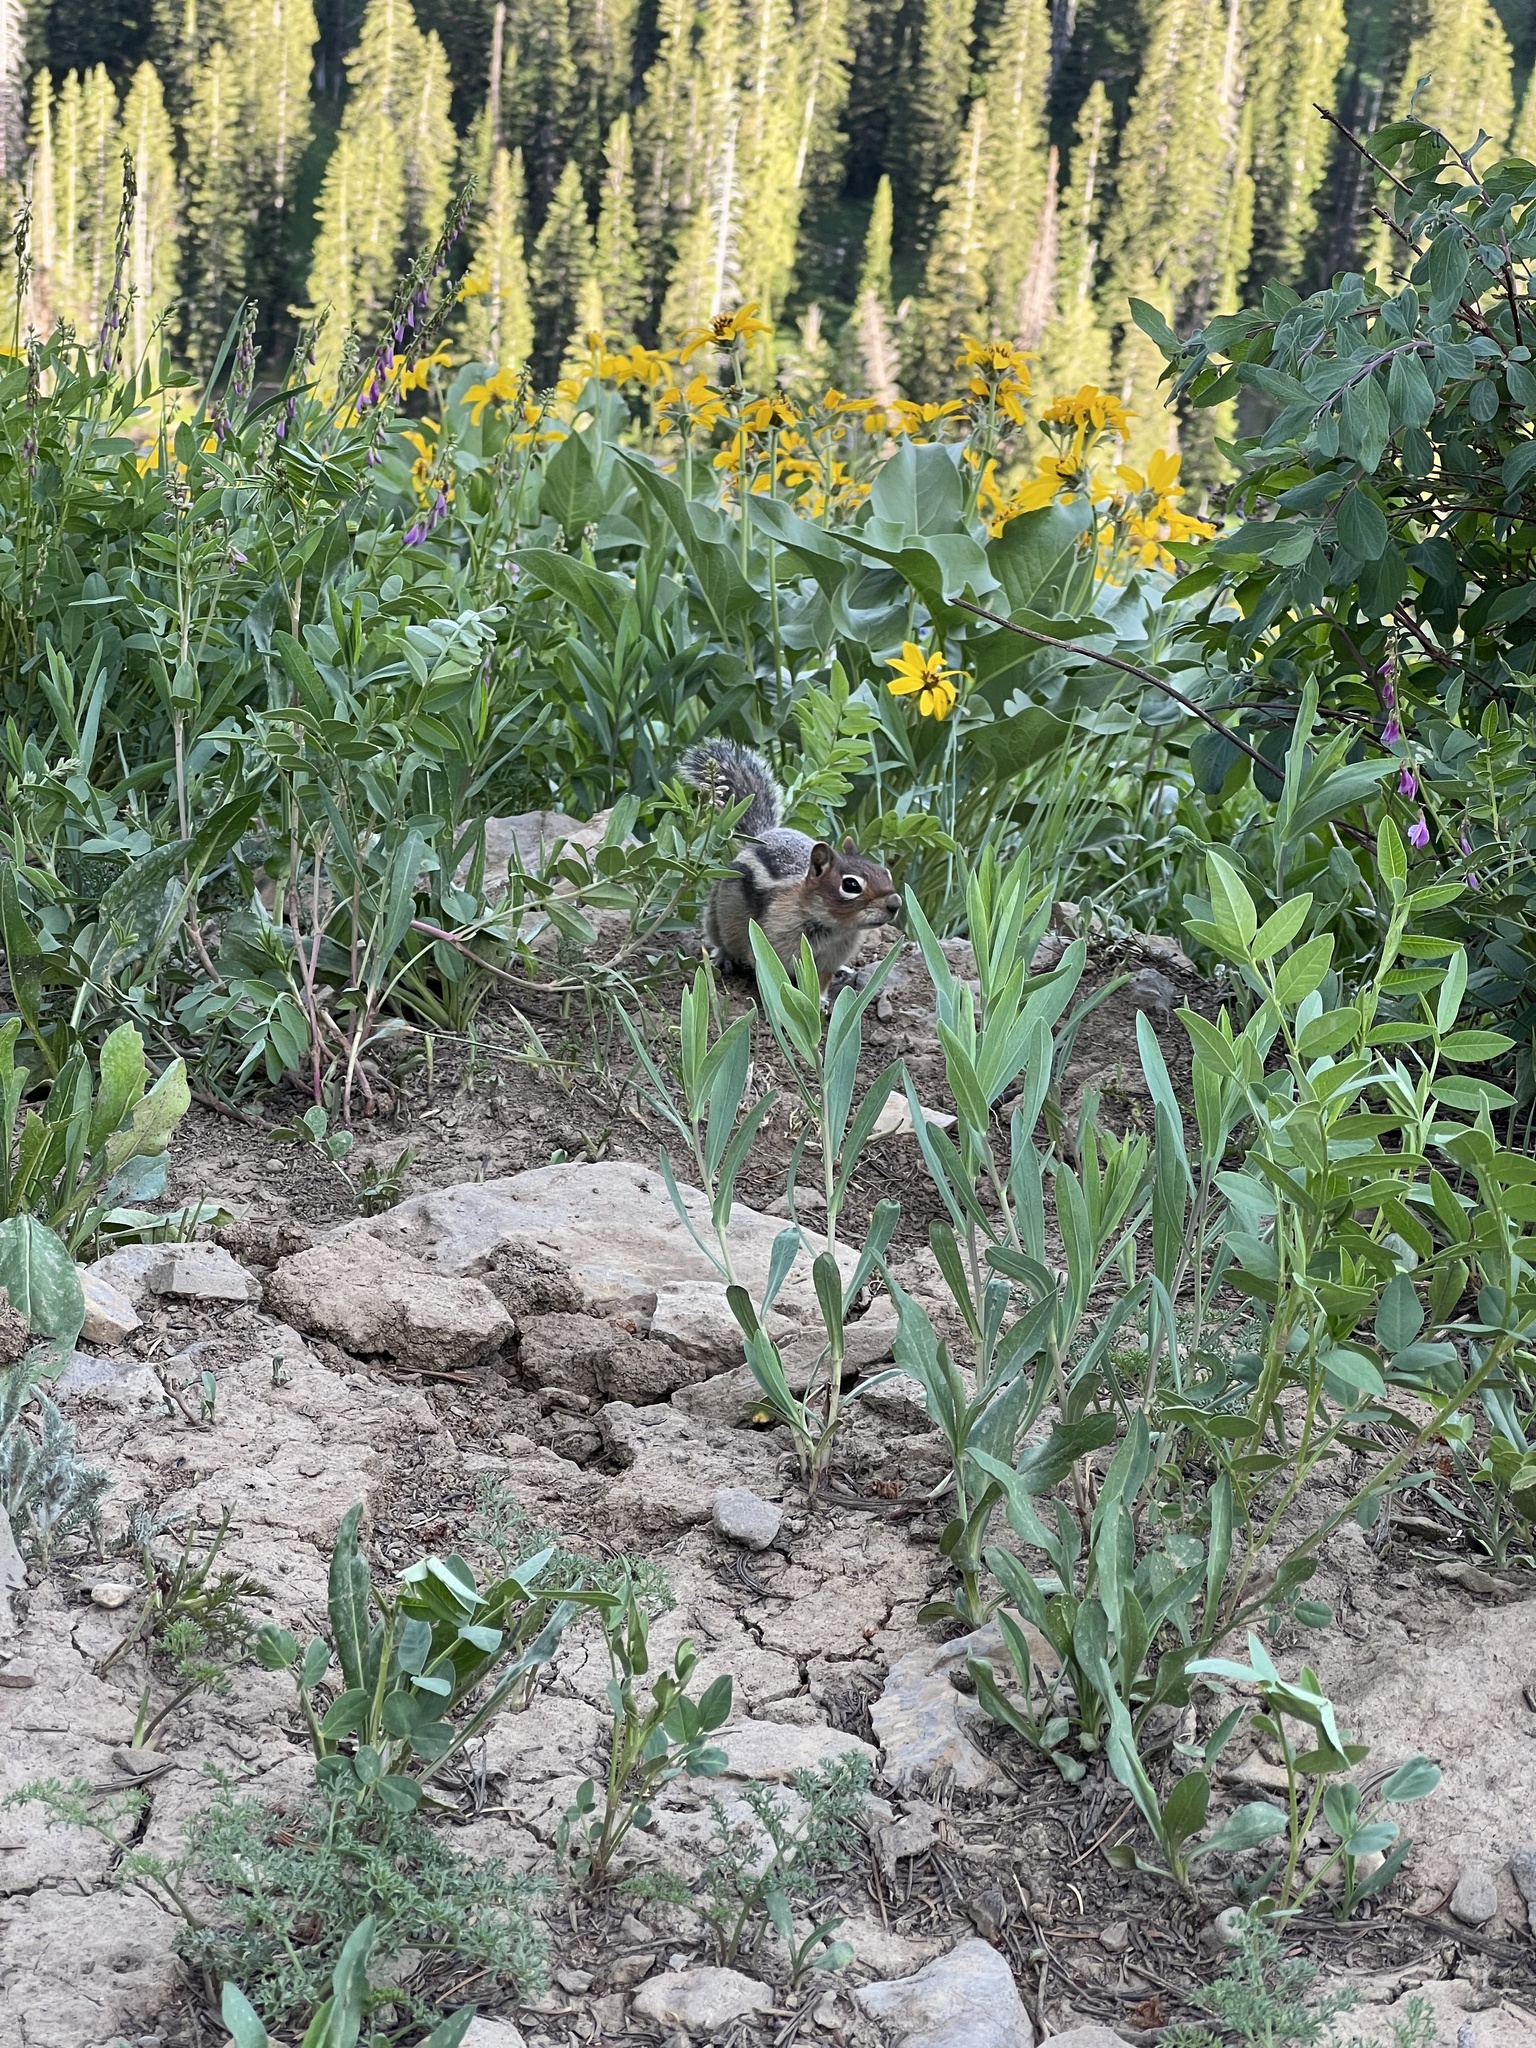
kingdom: Animalia
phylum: Chordata
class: Mammalia
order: Rodentia
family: Sciuridae
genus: Callospermophilus
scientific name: Callospermophilus lateralis
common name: Golden-mantled ground squirrel
